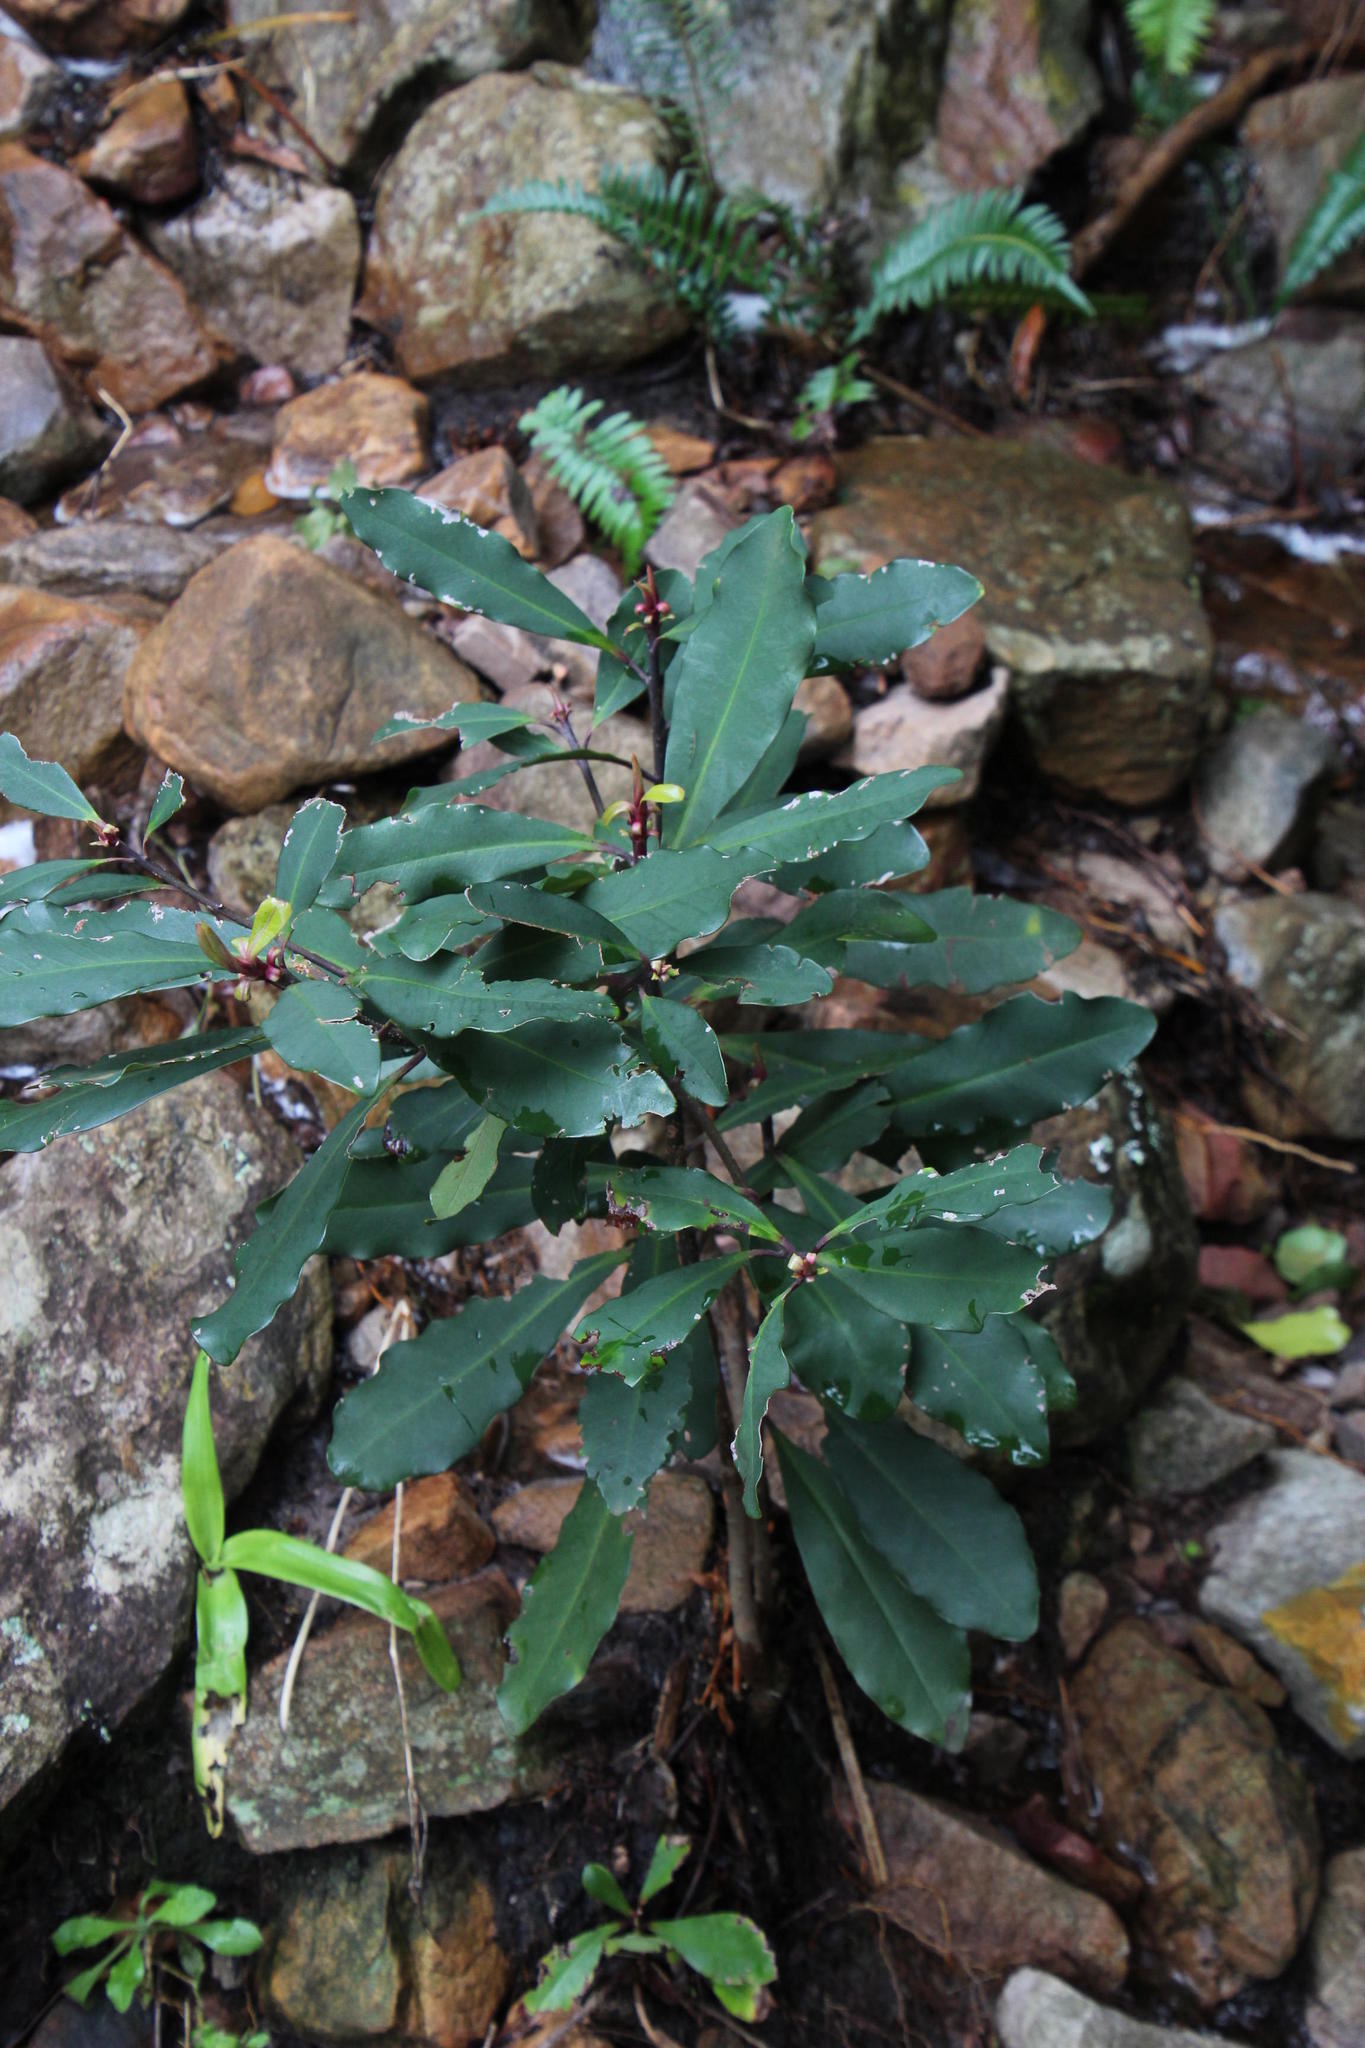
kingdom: Plantae
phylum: Tracheophyta
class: Magnoliopsida
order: Ericales
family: Primulaceae
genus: Myrsine
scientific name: Myrsine melanophloeos
